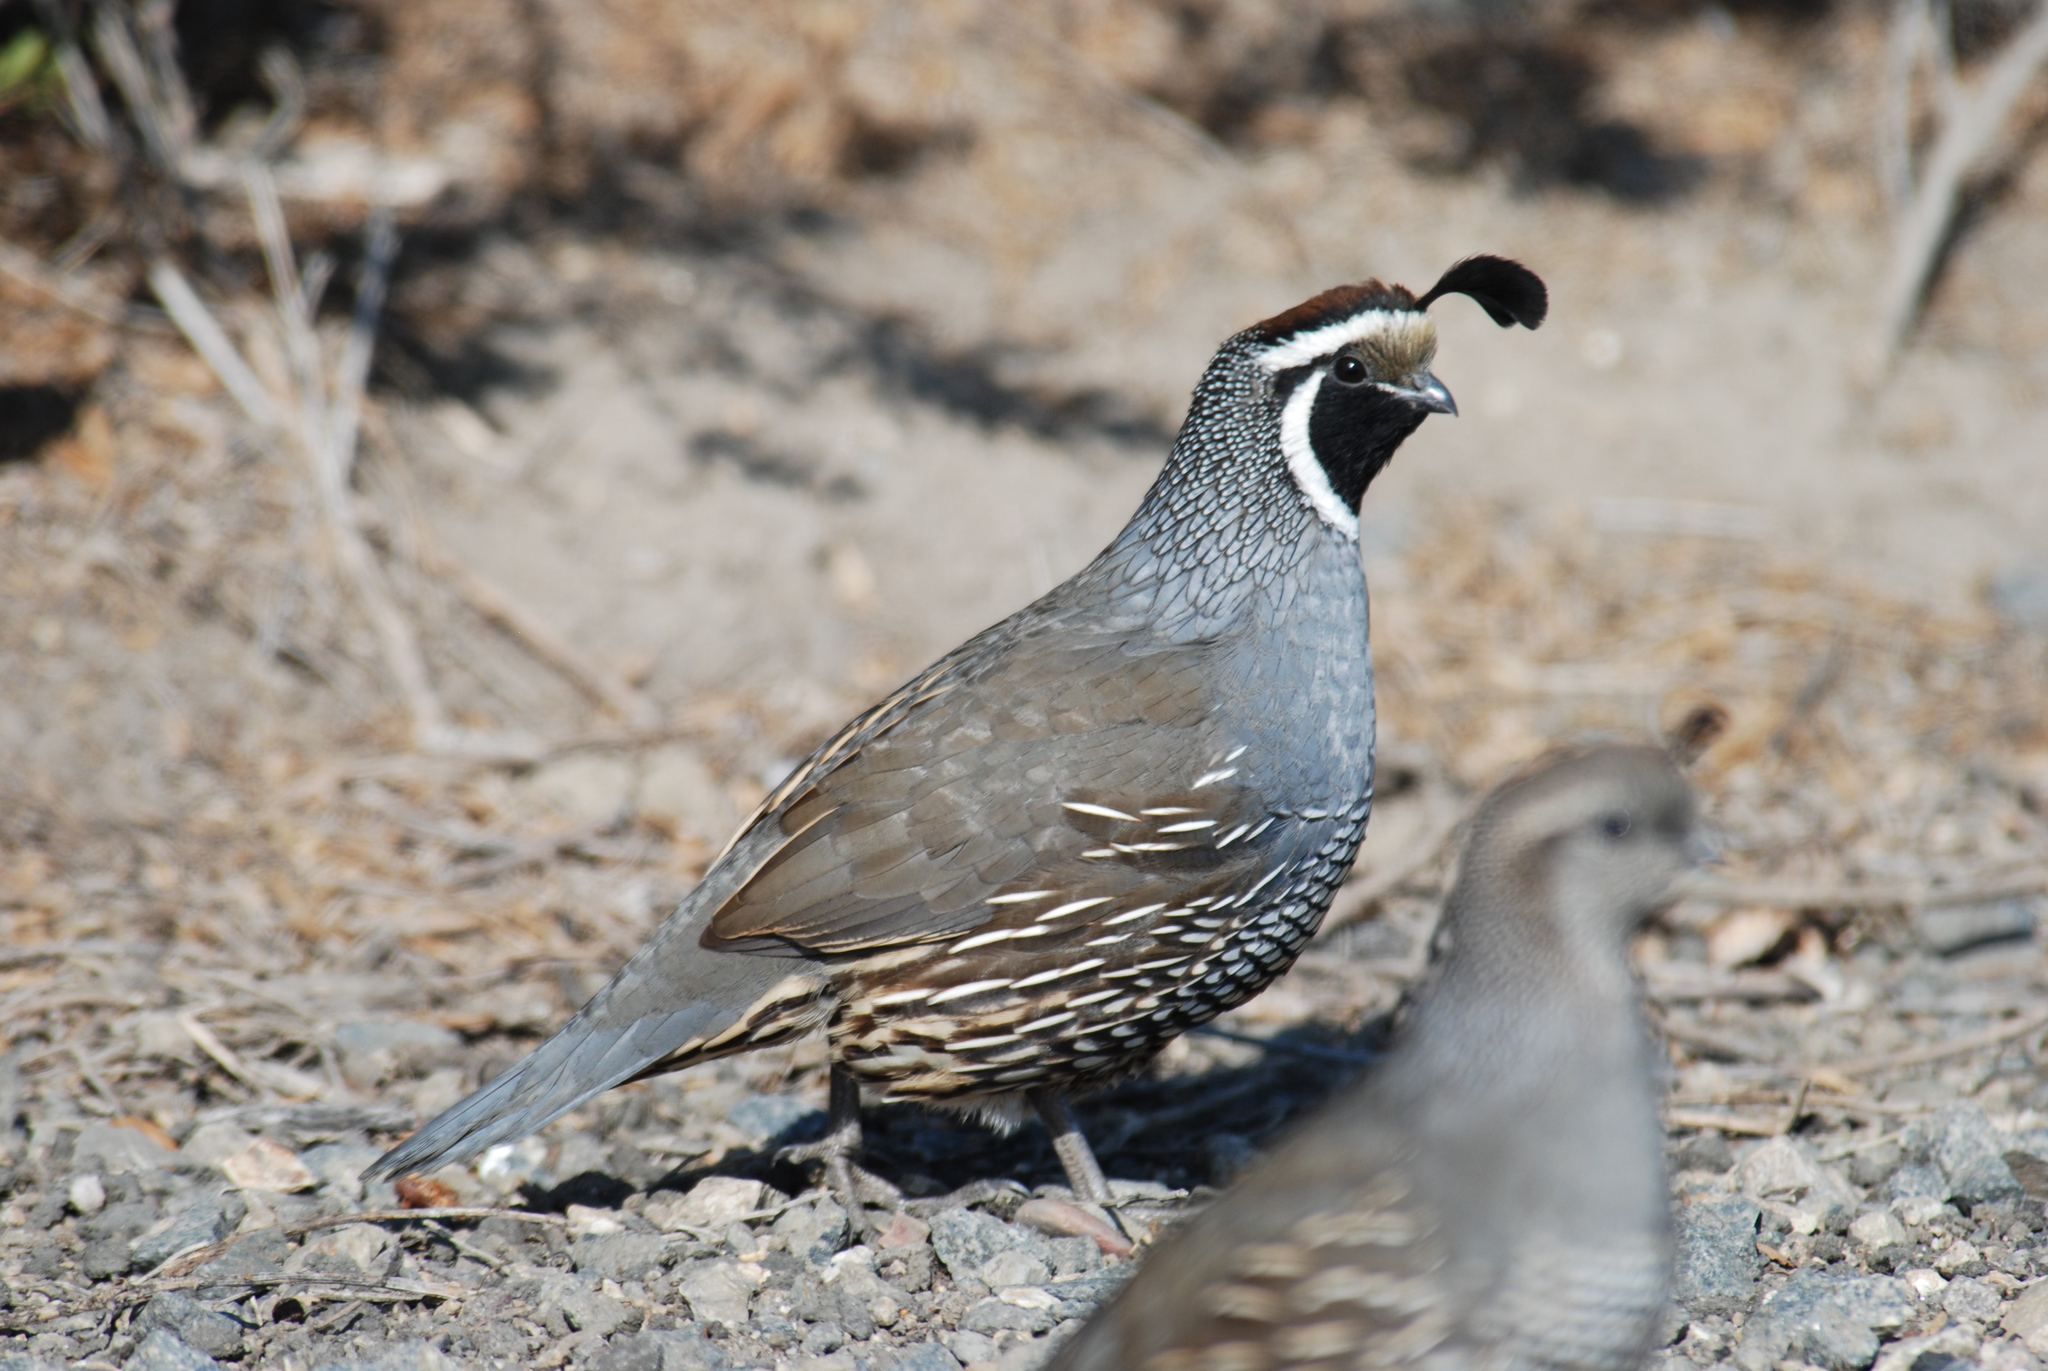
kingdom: Animalia
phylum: Chordata
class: Aves
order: Galliformes
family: Odontophoridae
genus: Callipepla
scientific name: Callipepla californica
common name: California quail
